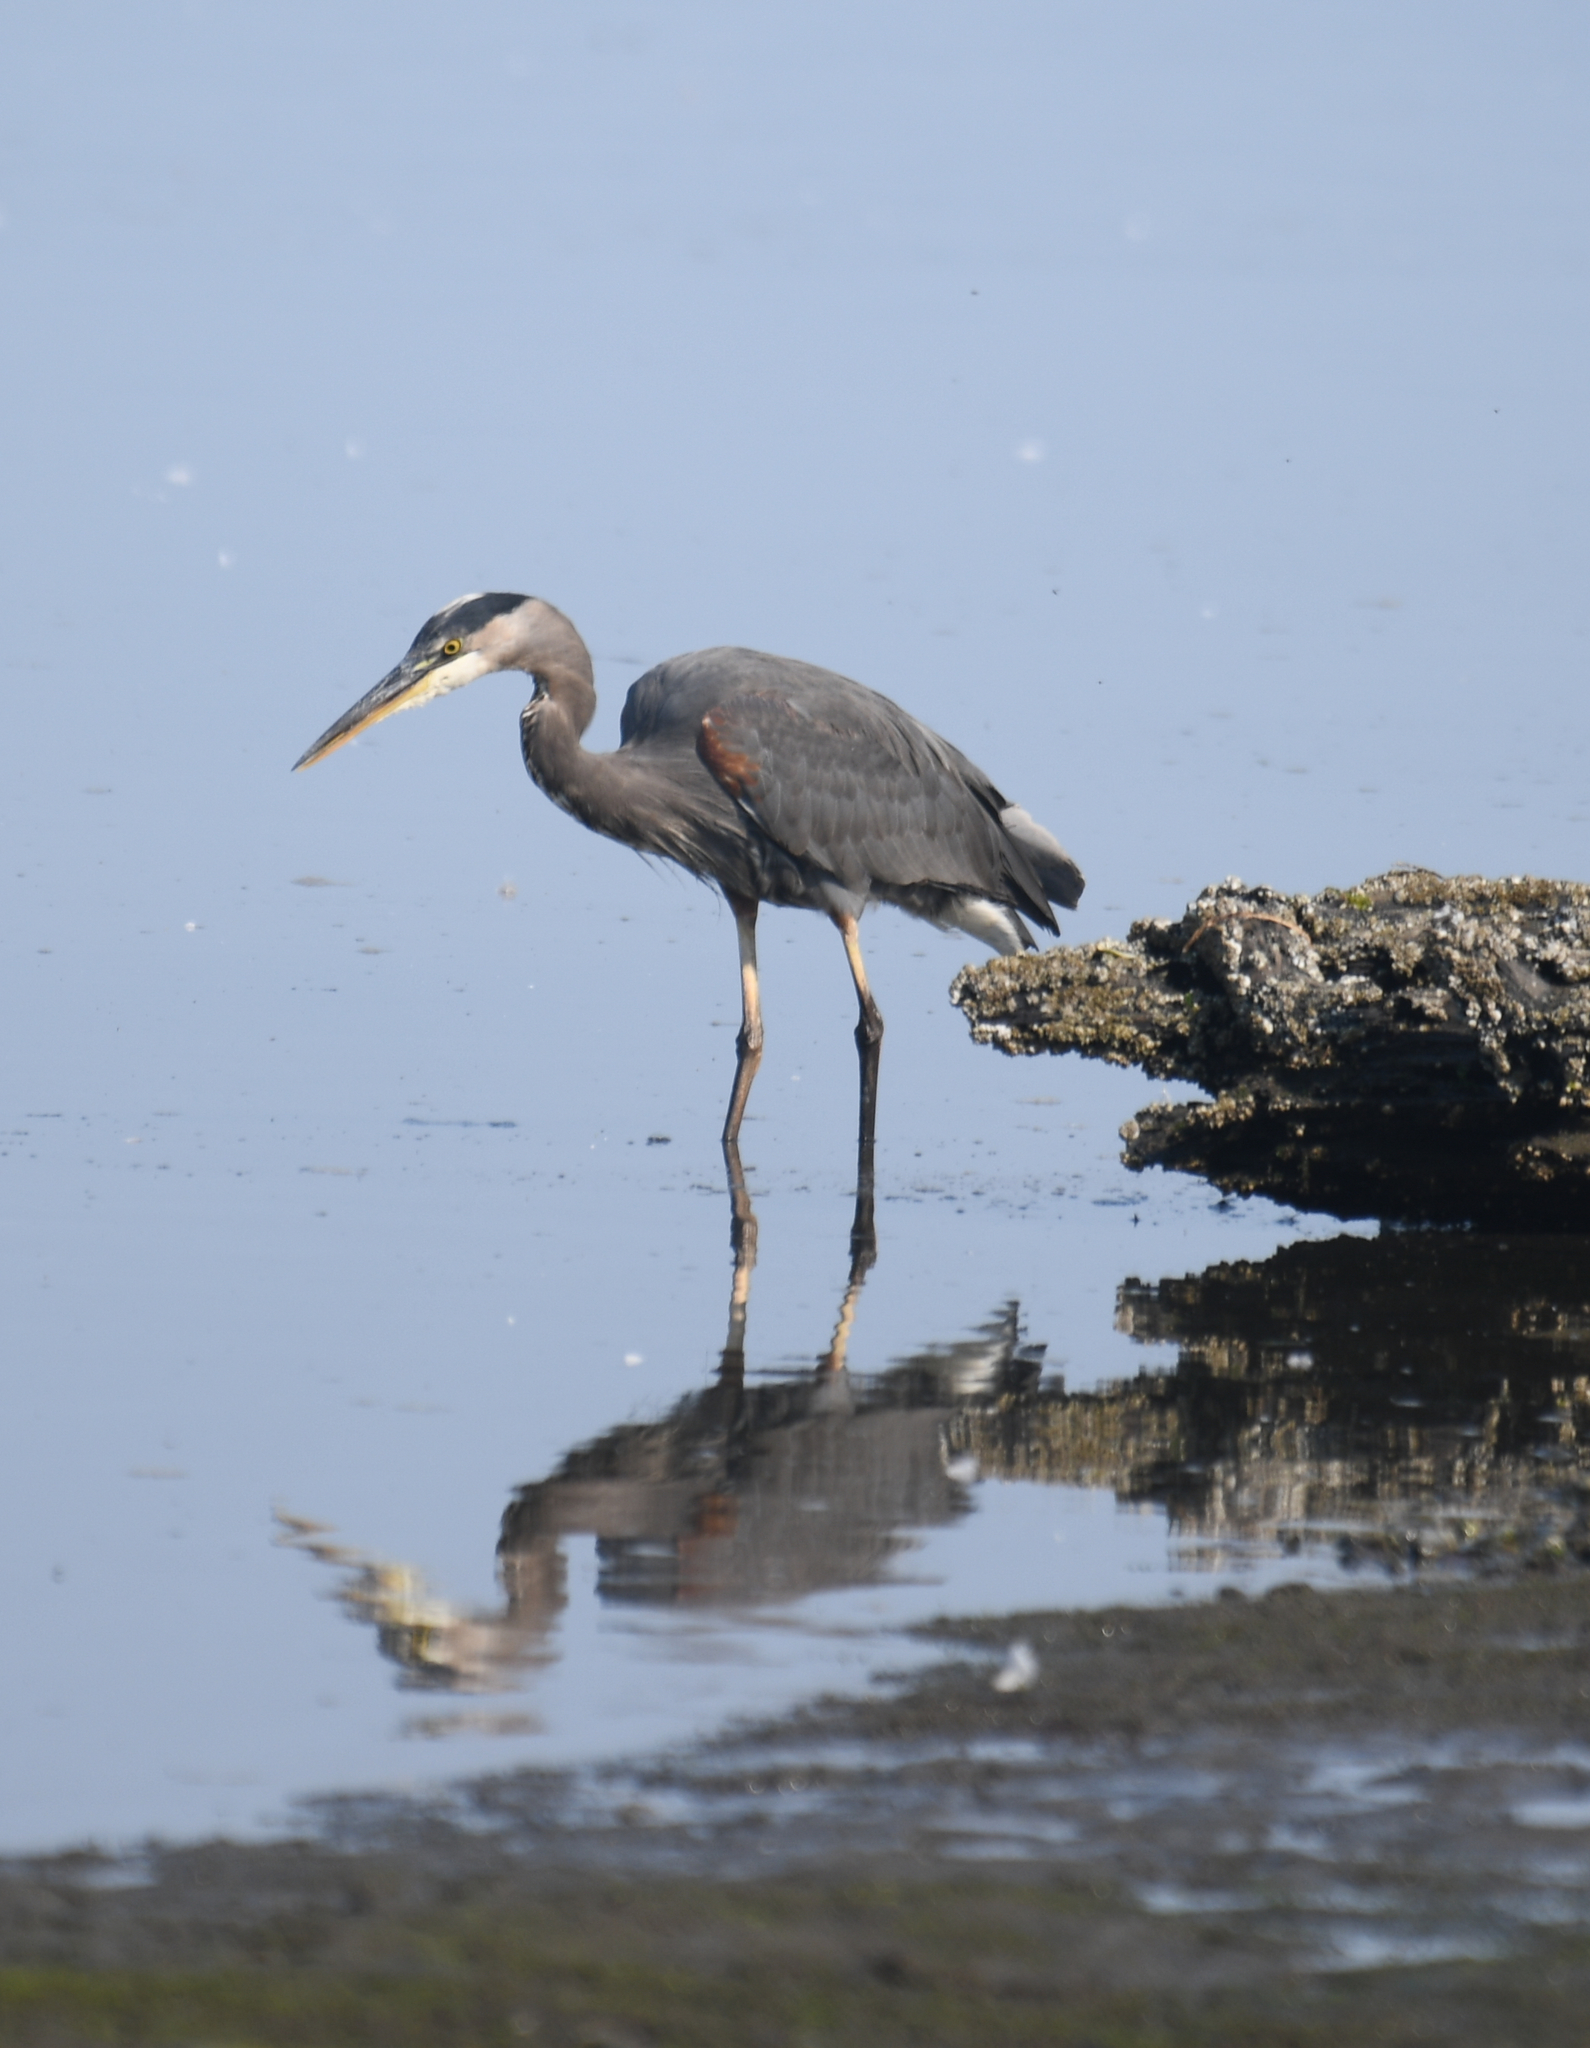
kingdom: Animalia
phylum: Chordata
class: Aves
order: Pelecaniformes
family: Ardeidae
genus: Ardea
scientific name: Ardea herodias
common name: Great blue heron
